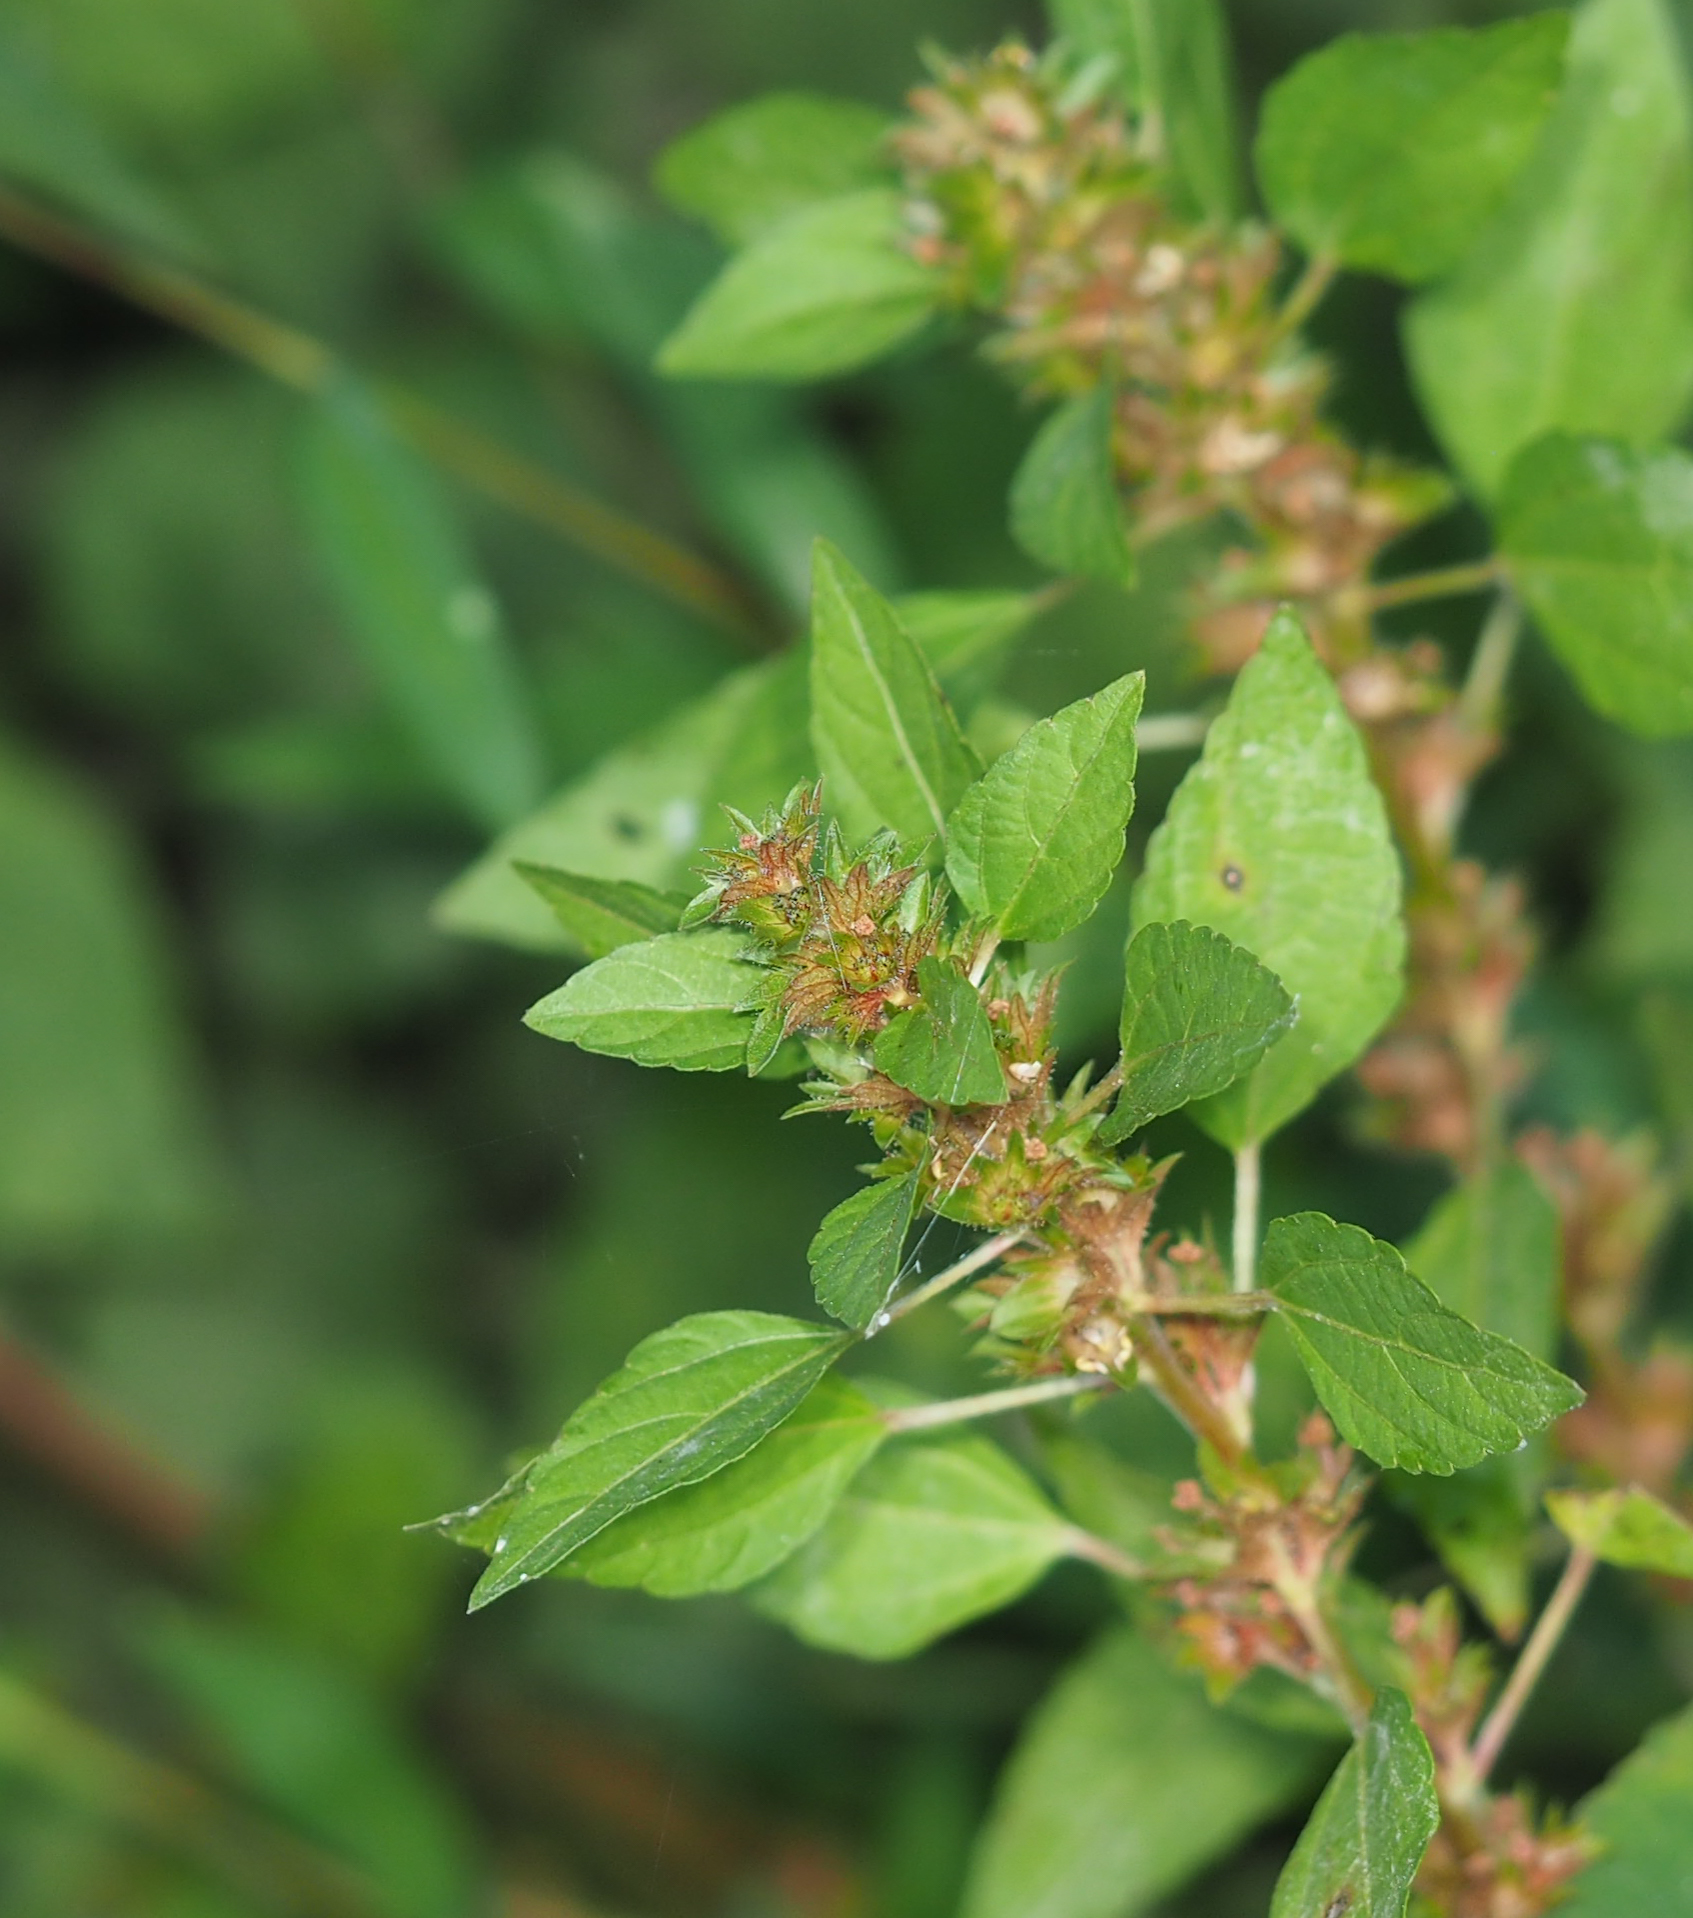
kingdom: Plantae
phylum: Tracheophyta
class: Magnoliopsida
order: Malpighiales
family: Euphorbiaceae
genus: Acalypha
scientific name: Acalypha rhomboidea
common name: Rhombic copperleaf
